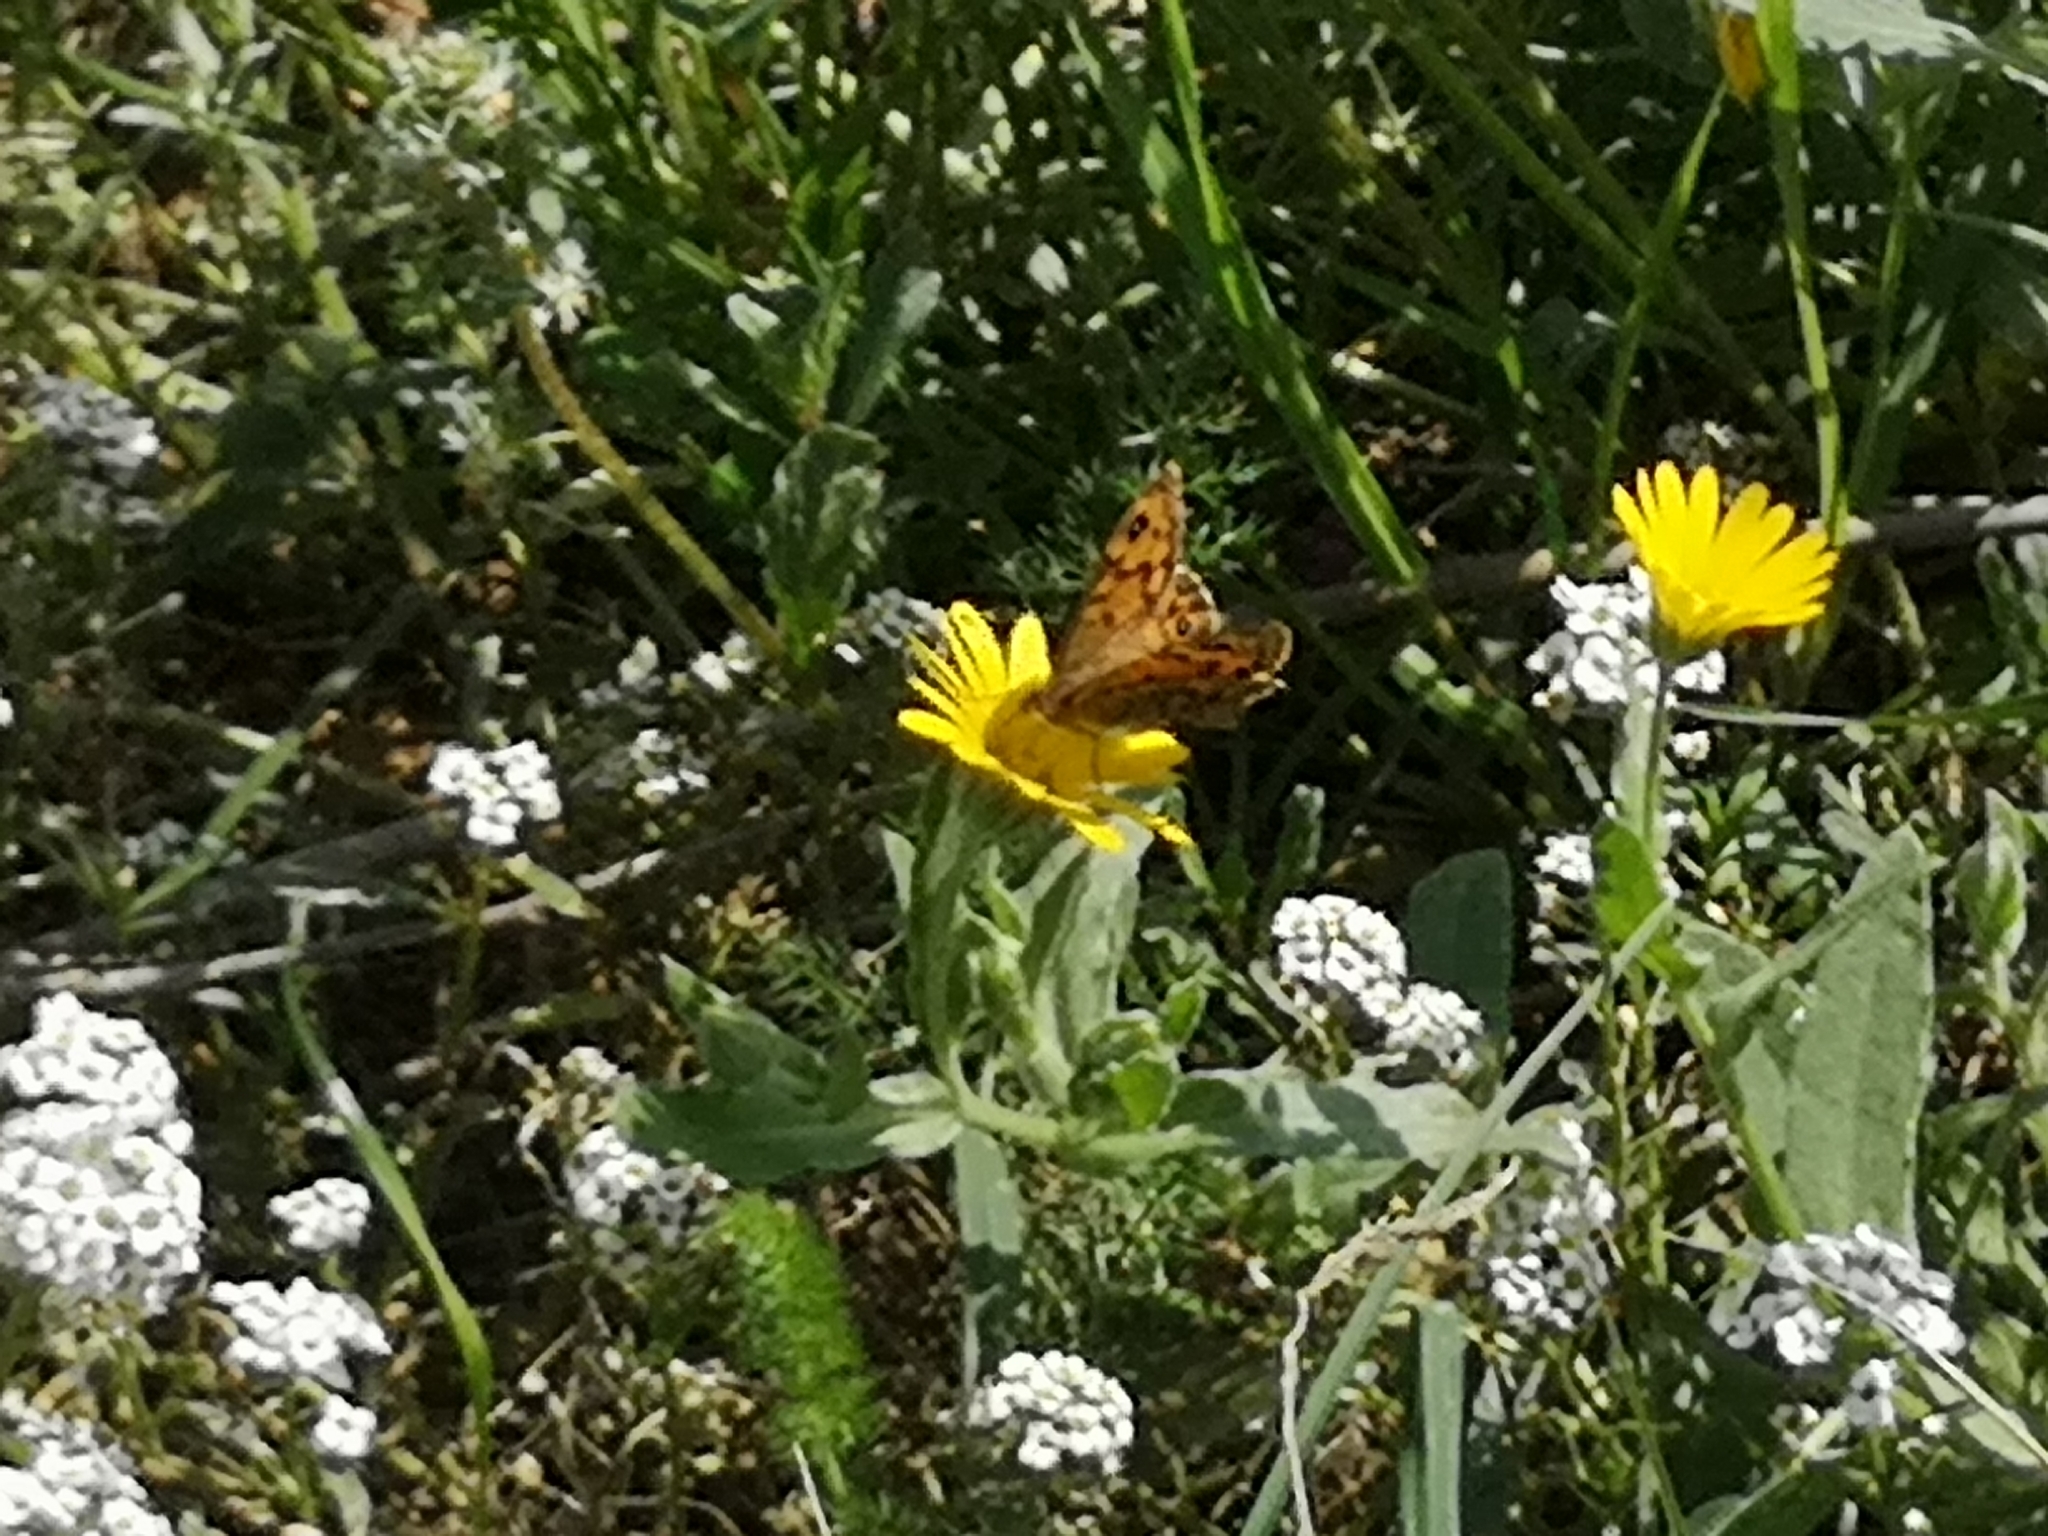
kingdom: Animalia
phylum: Arthropoda
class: Insecta
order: Lepidoptera
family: Nymphalidae
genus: Pararge
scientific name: Pararge Lasiommata megera
